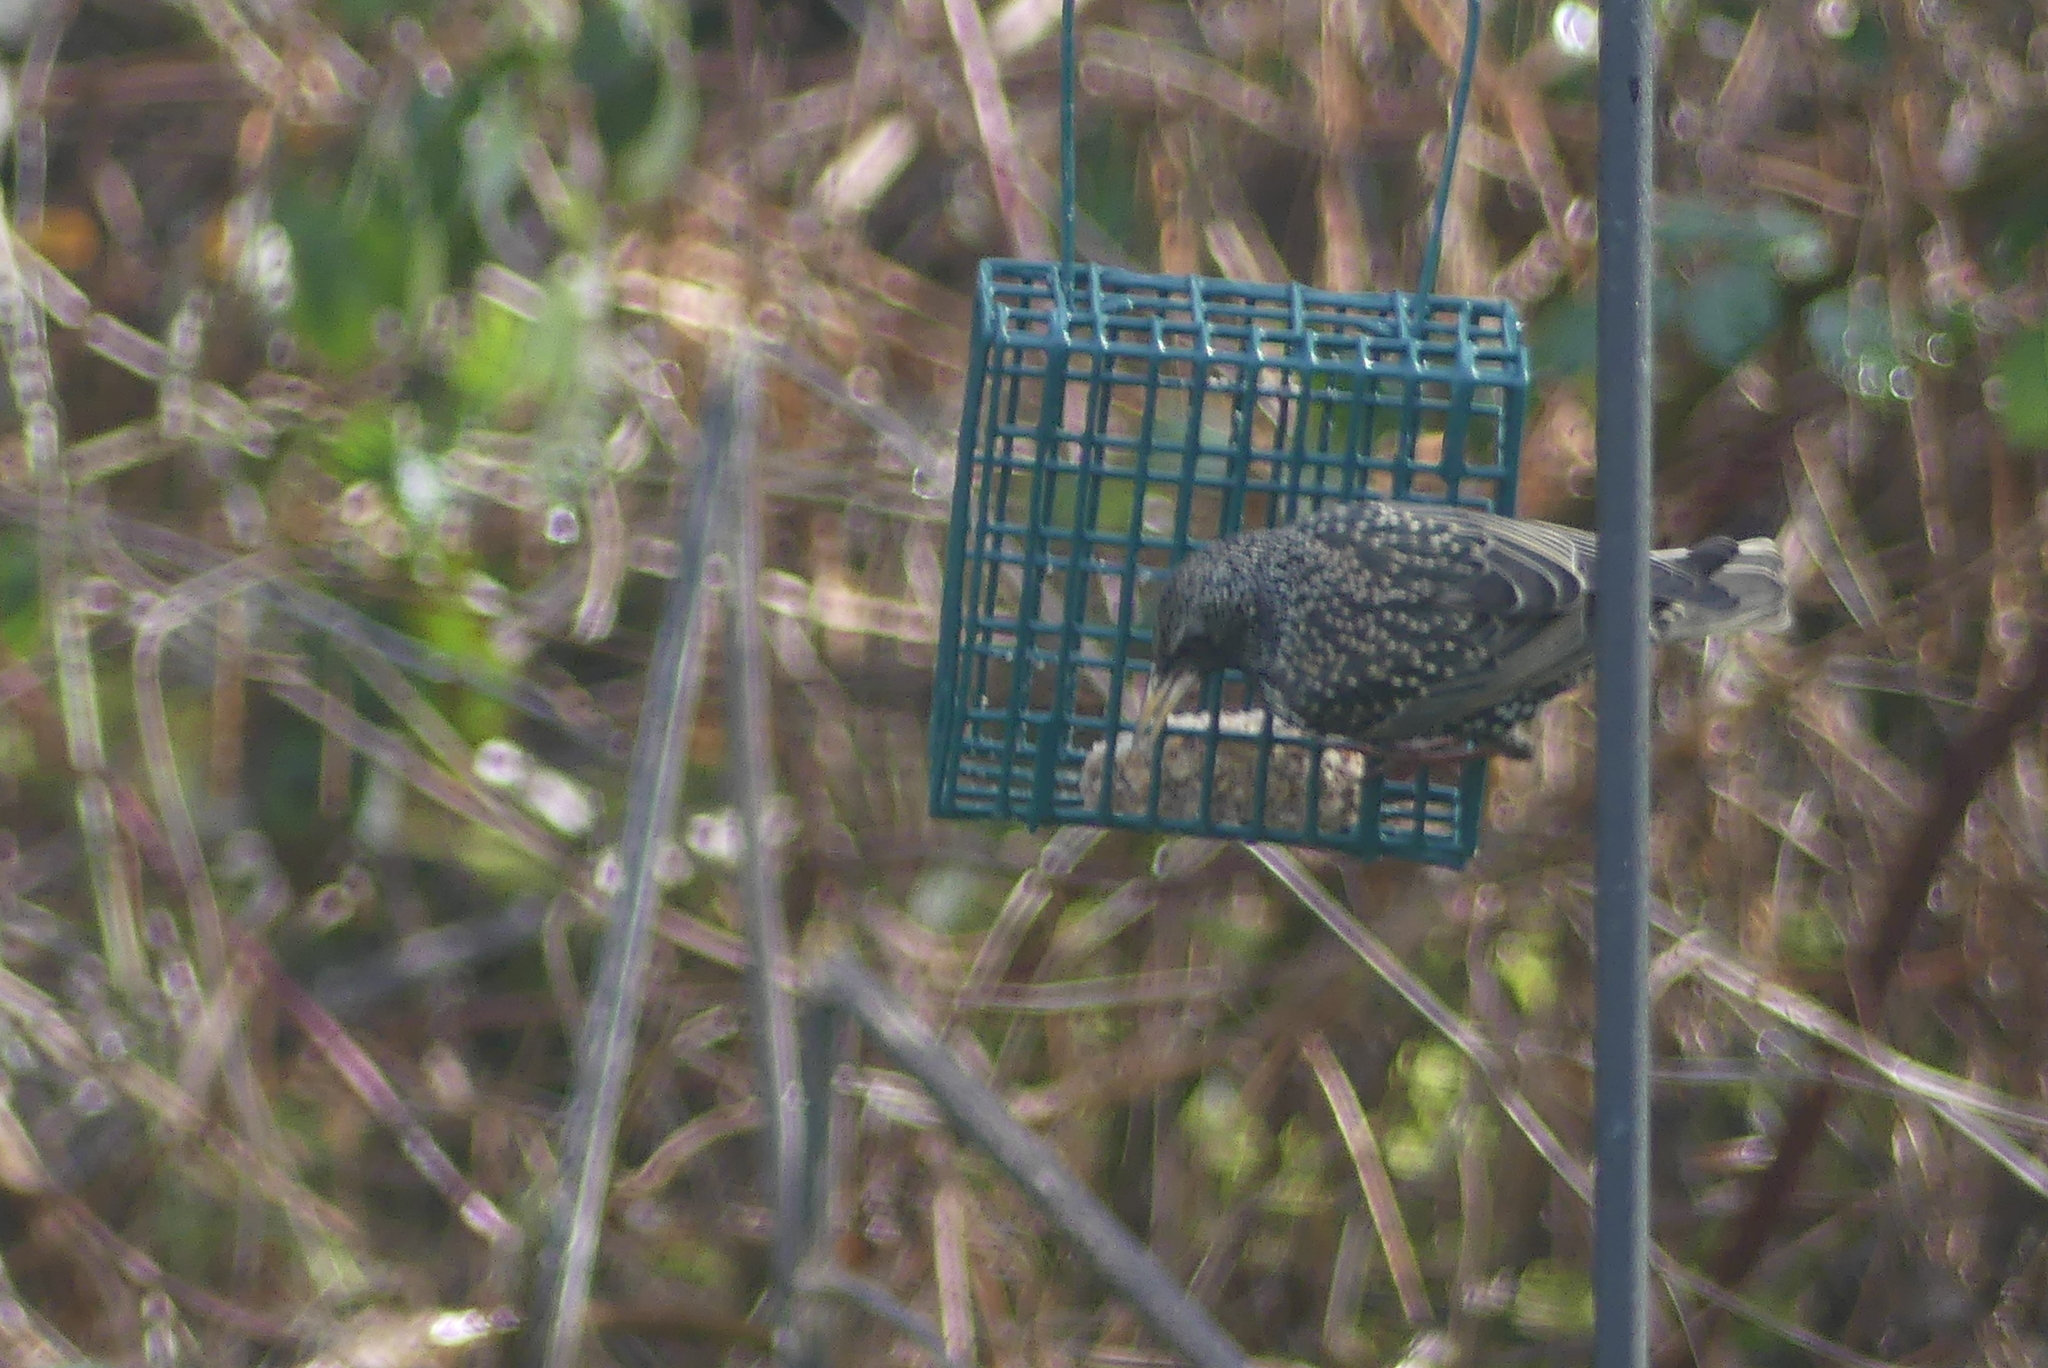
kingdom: Animalia
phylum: Chordata
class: Aves
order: Passeriformes
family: Sturnidae
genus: Sturnus
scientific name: Sturnus vulgaris
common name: Common starling
